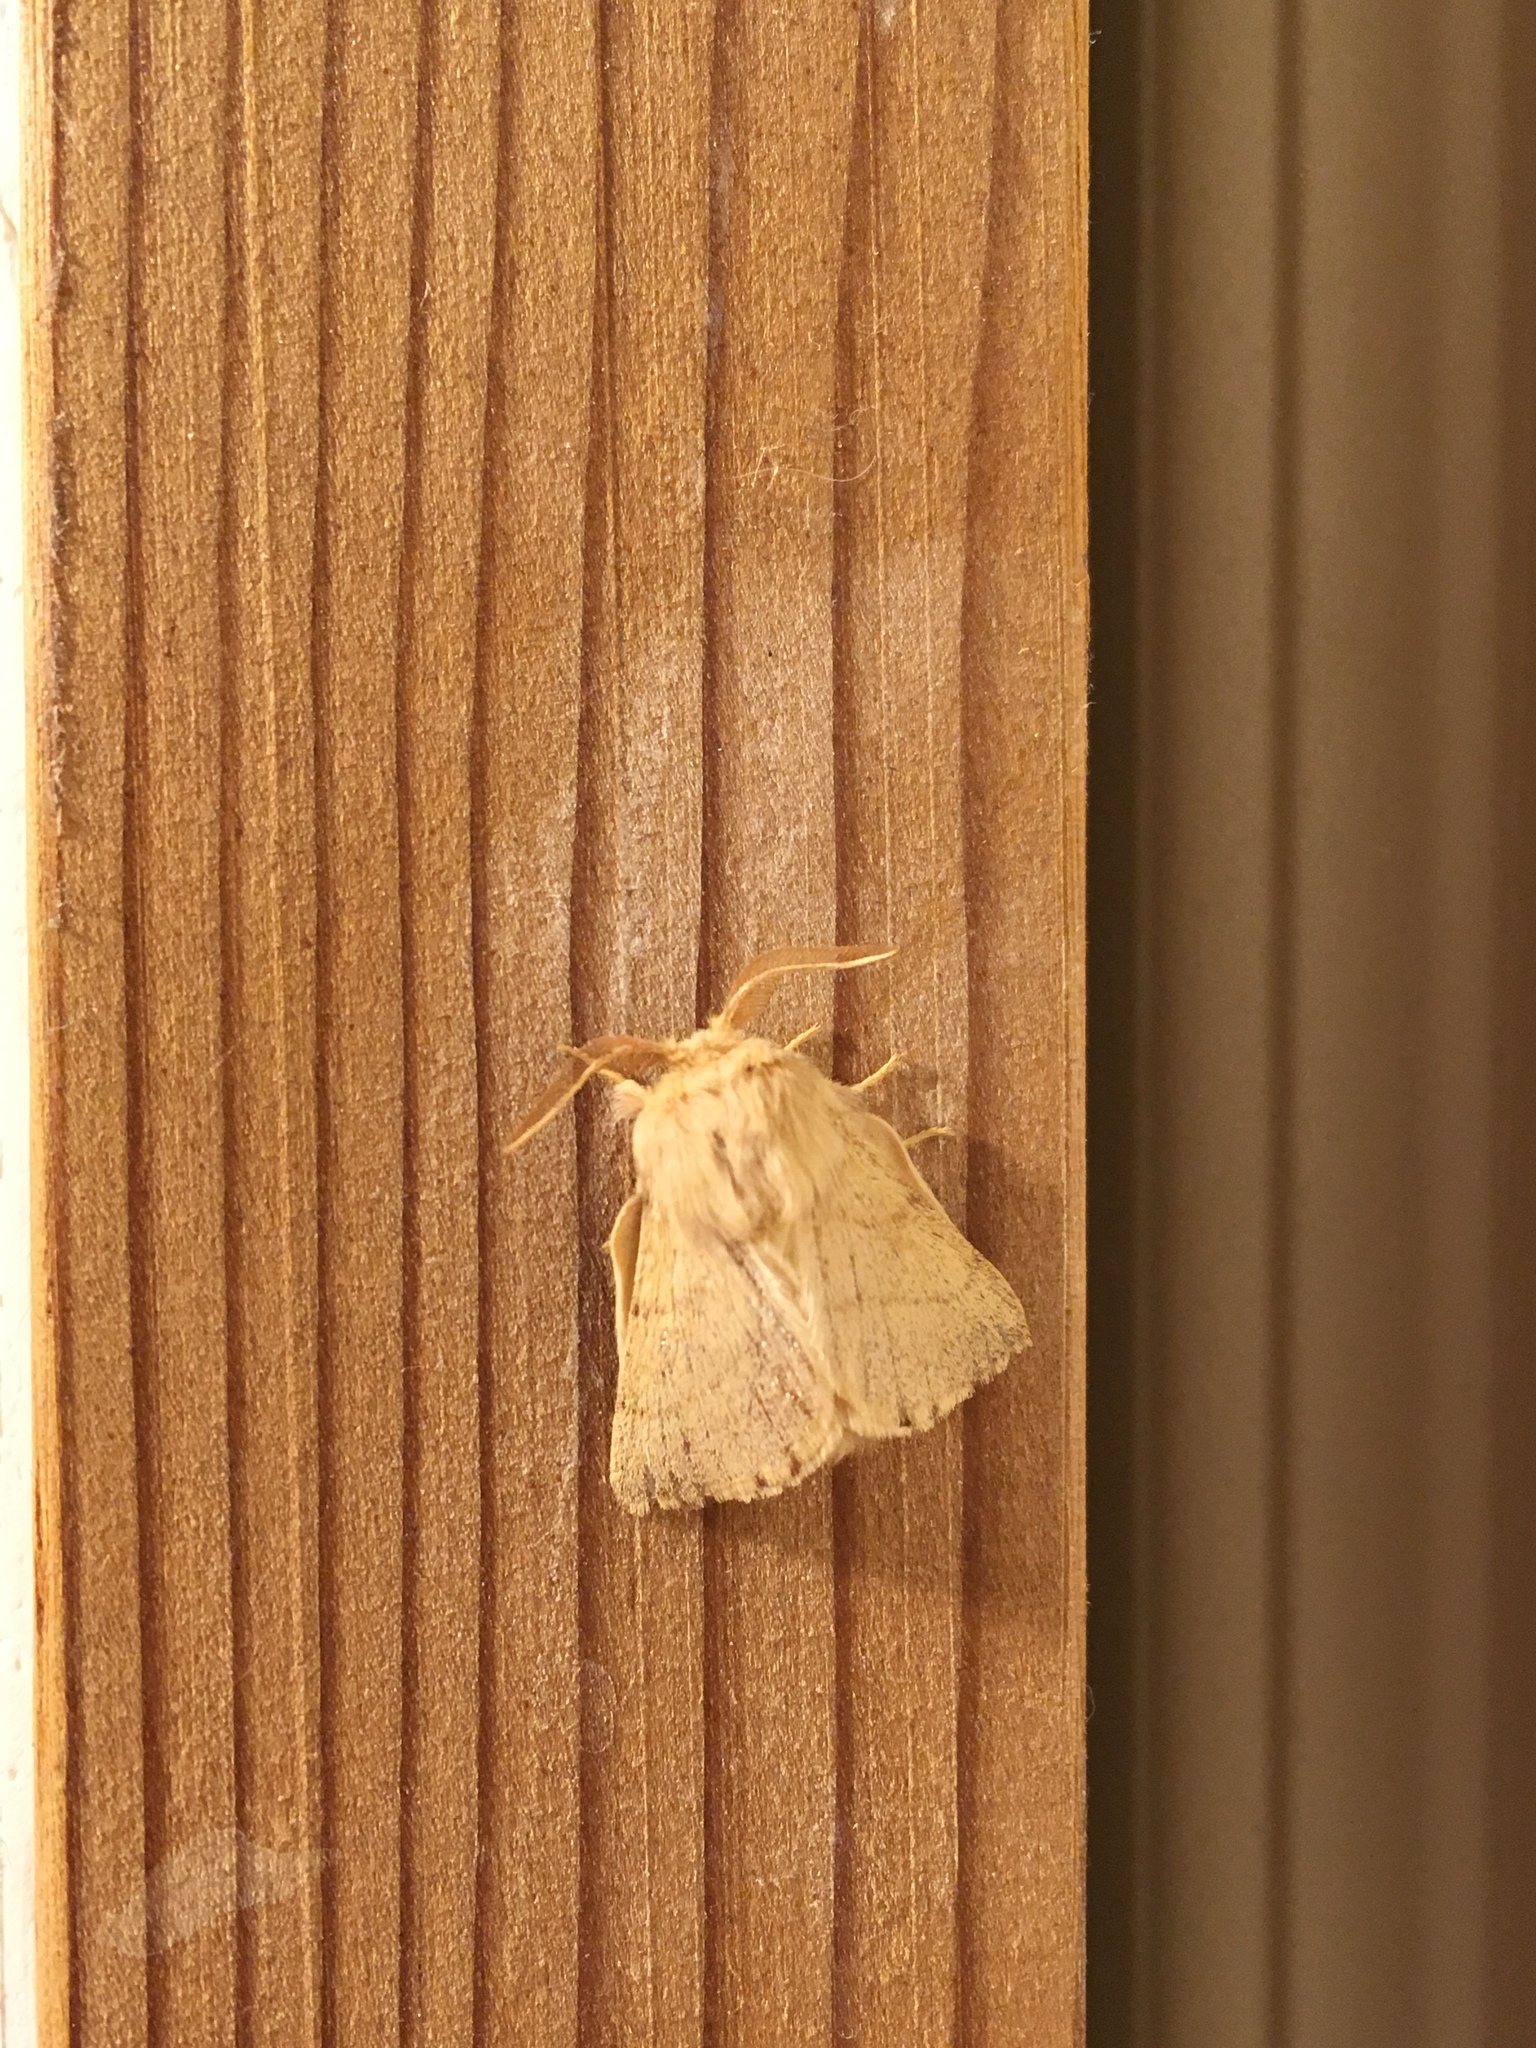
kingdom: Animalia
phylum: Arthropoda
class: Insecta
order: Lepidoptera
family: Lasiocampidae
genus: Malacosoma
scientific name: Malacosoma disstria
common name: Forest tent caterpillar
